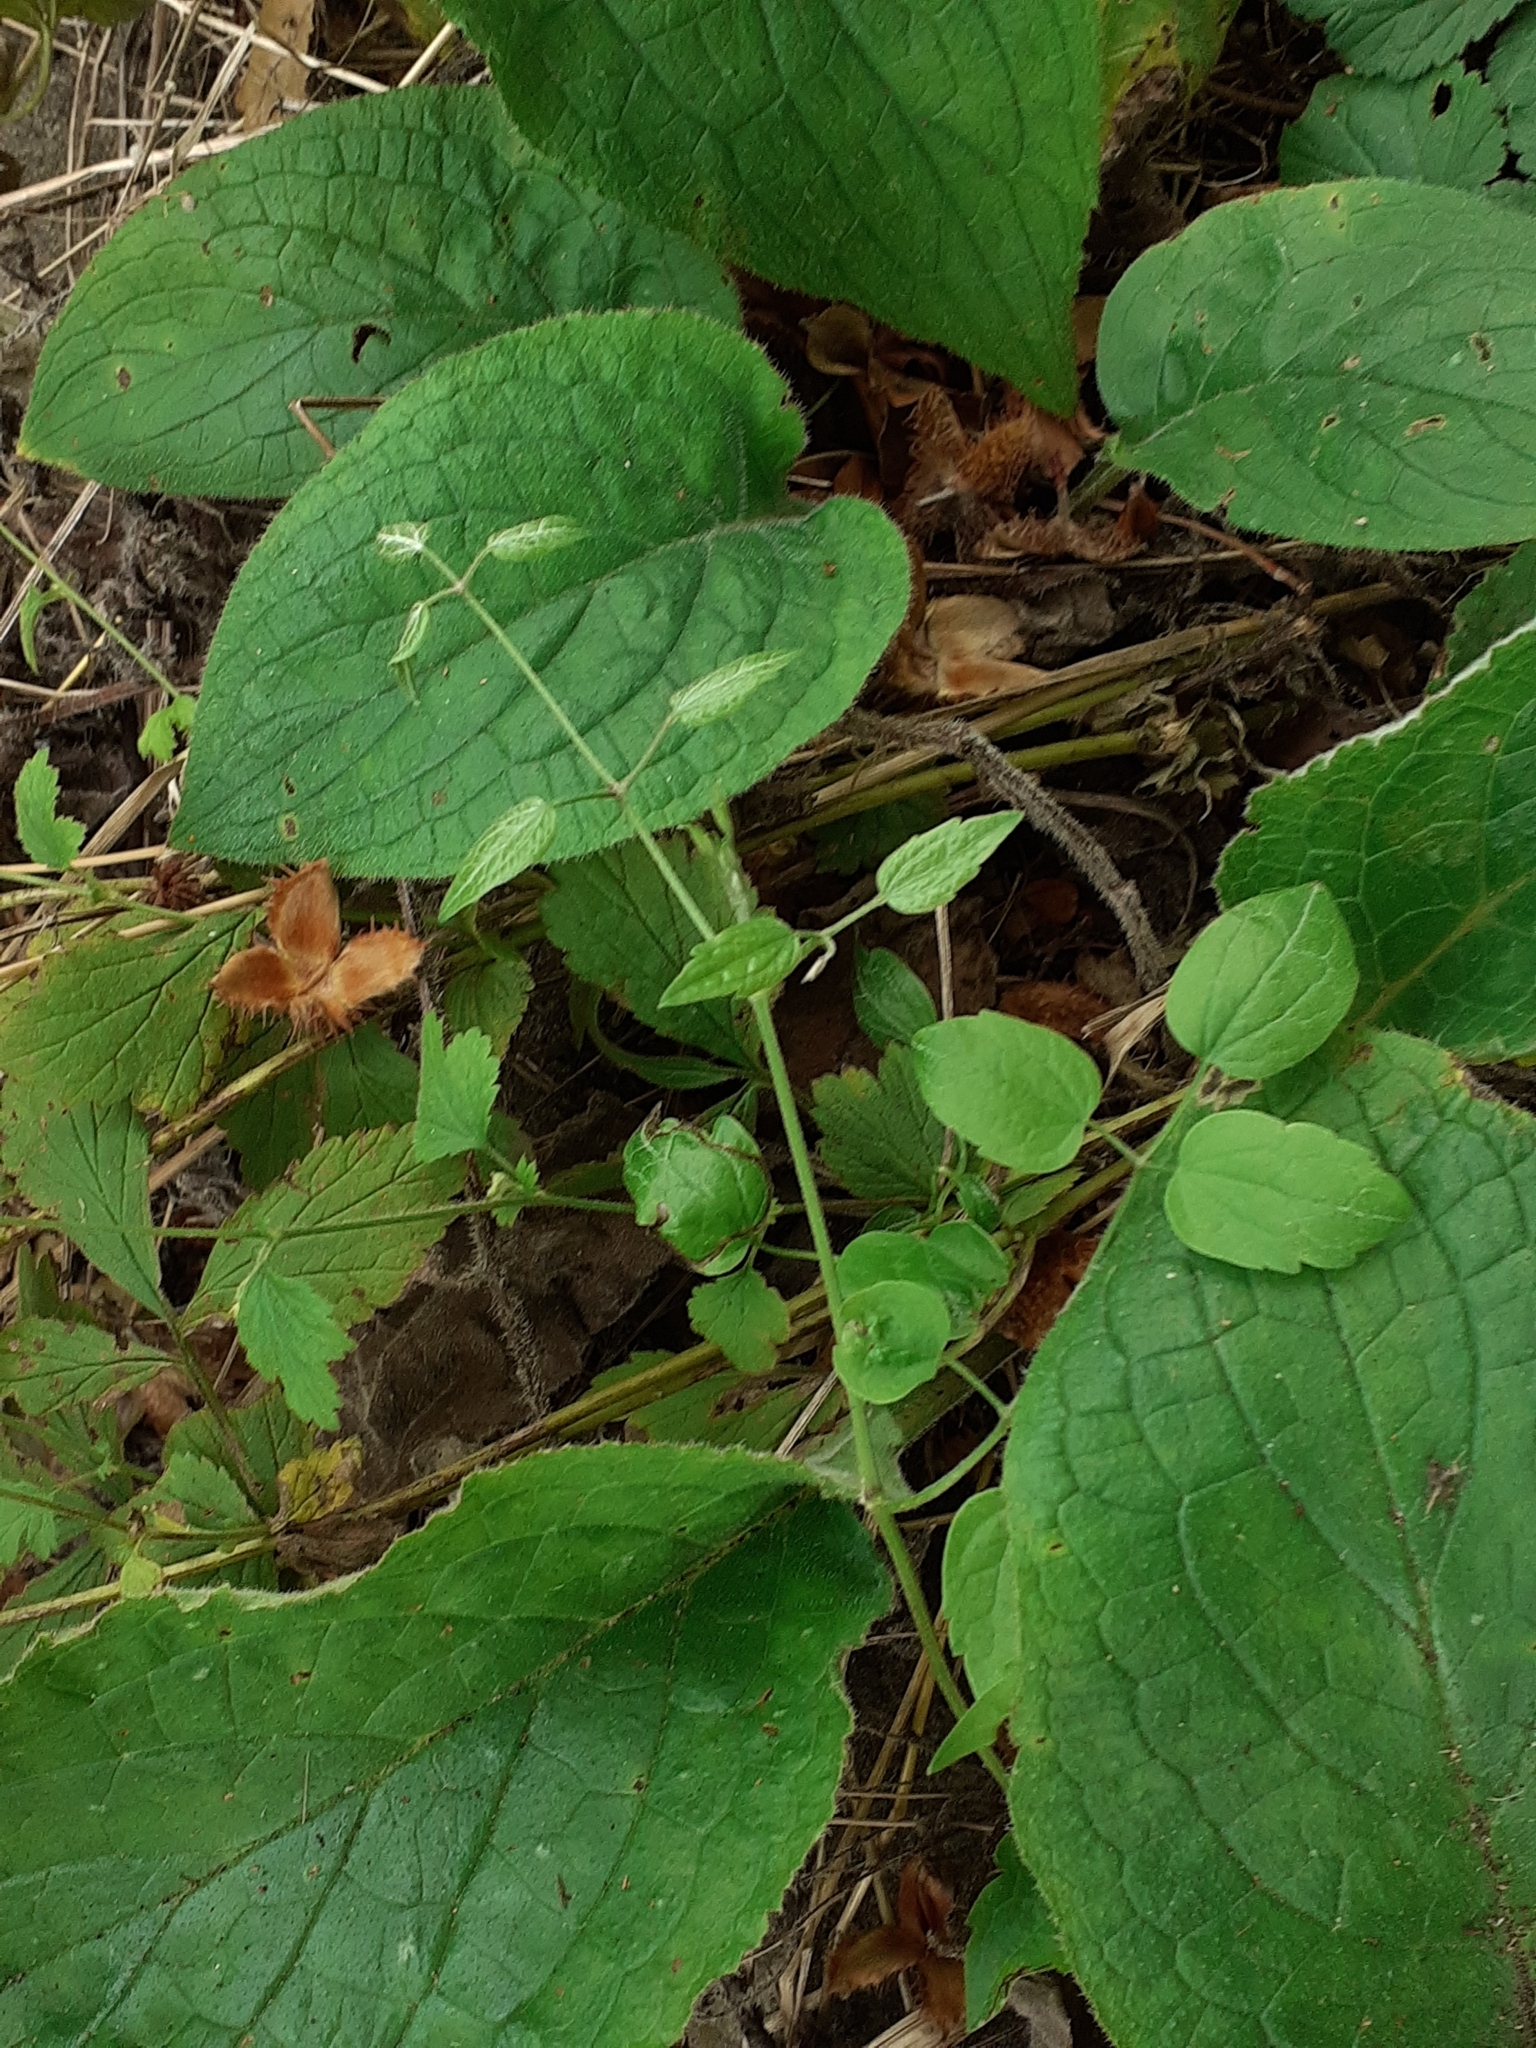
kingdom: Plantae
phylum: Tracheophyta
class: Magnoliopsida
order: Ranunculales
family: Ranunculaceae
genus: Clematis
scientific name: Clematis vitalba
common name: Evergreen clematis
